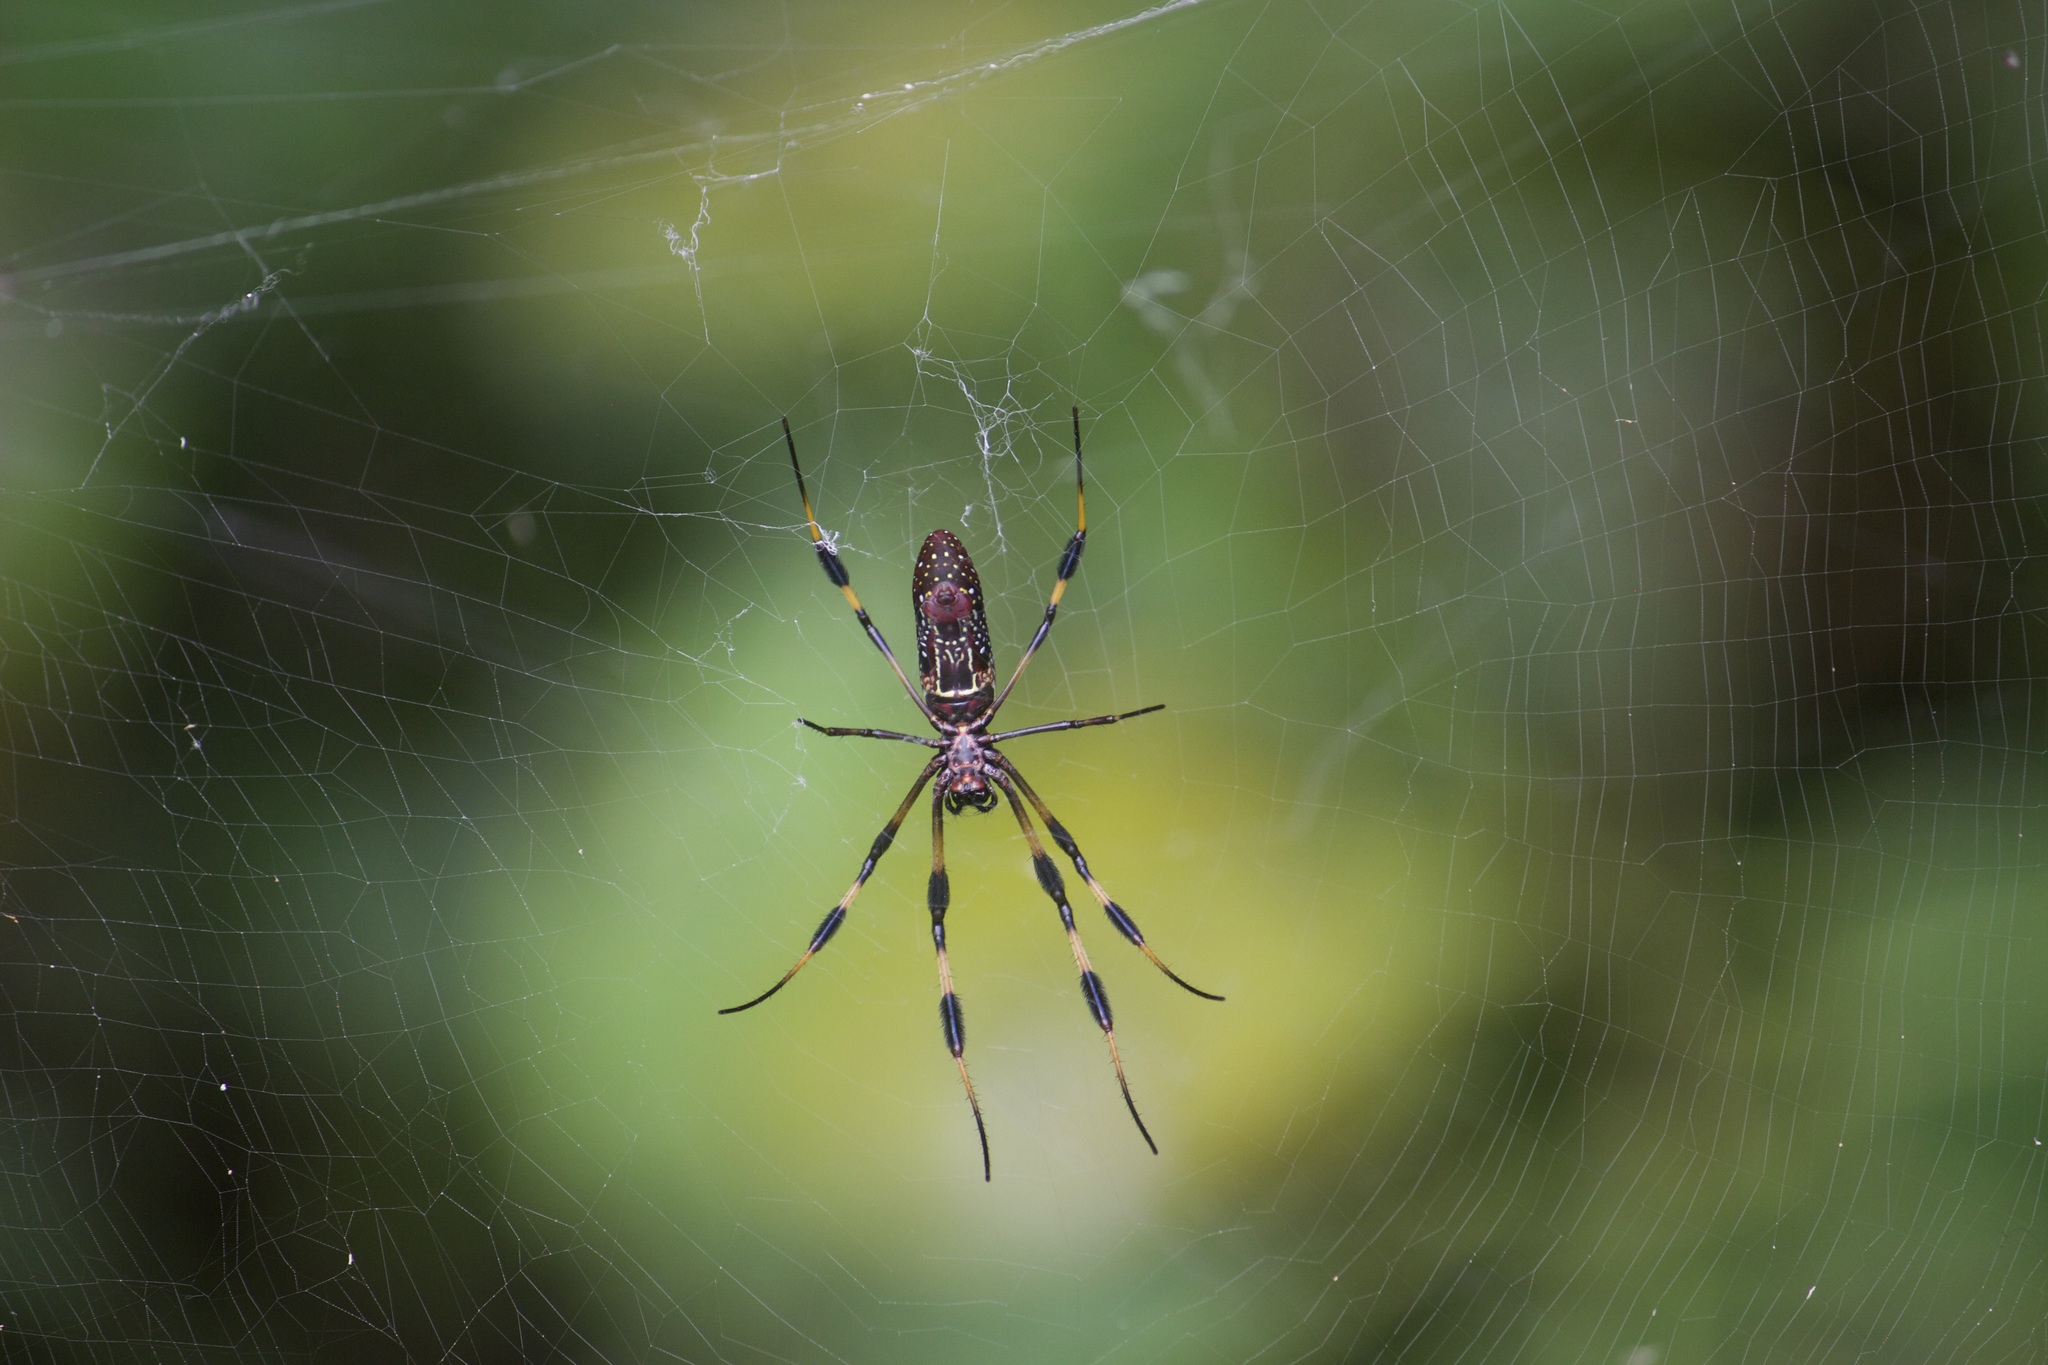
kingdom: Animalia
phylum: Arthropoda
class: Arachnida
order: Araneae
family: Araneidae
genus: Trichonephila
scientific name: Trichonephila clavipes
